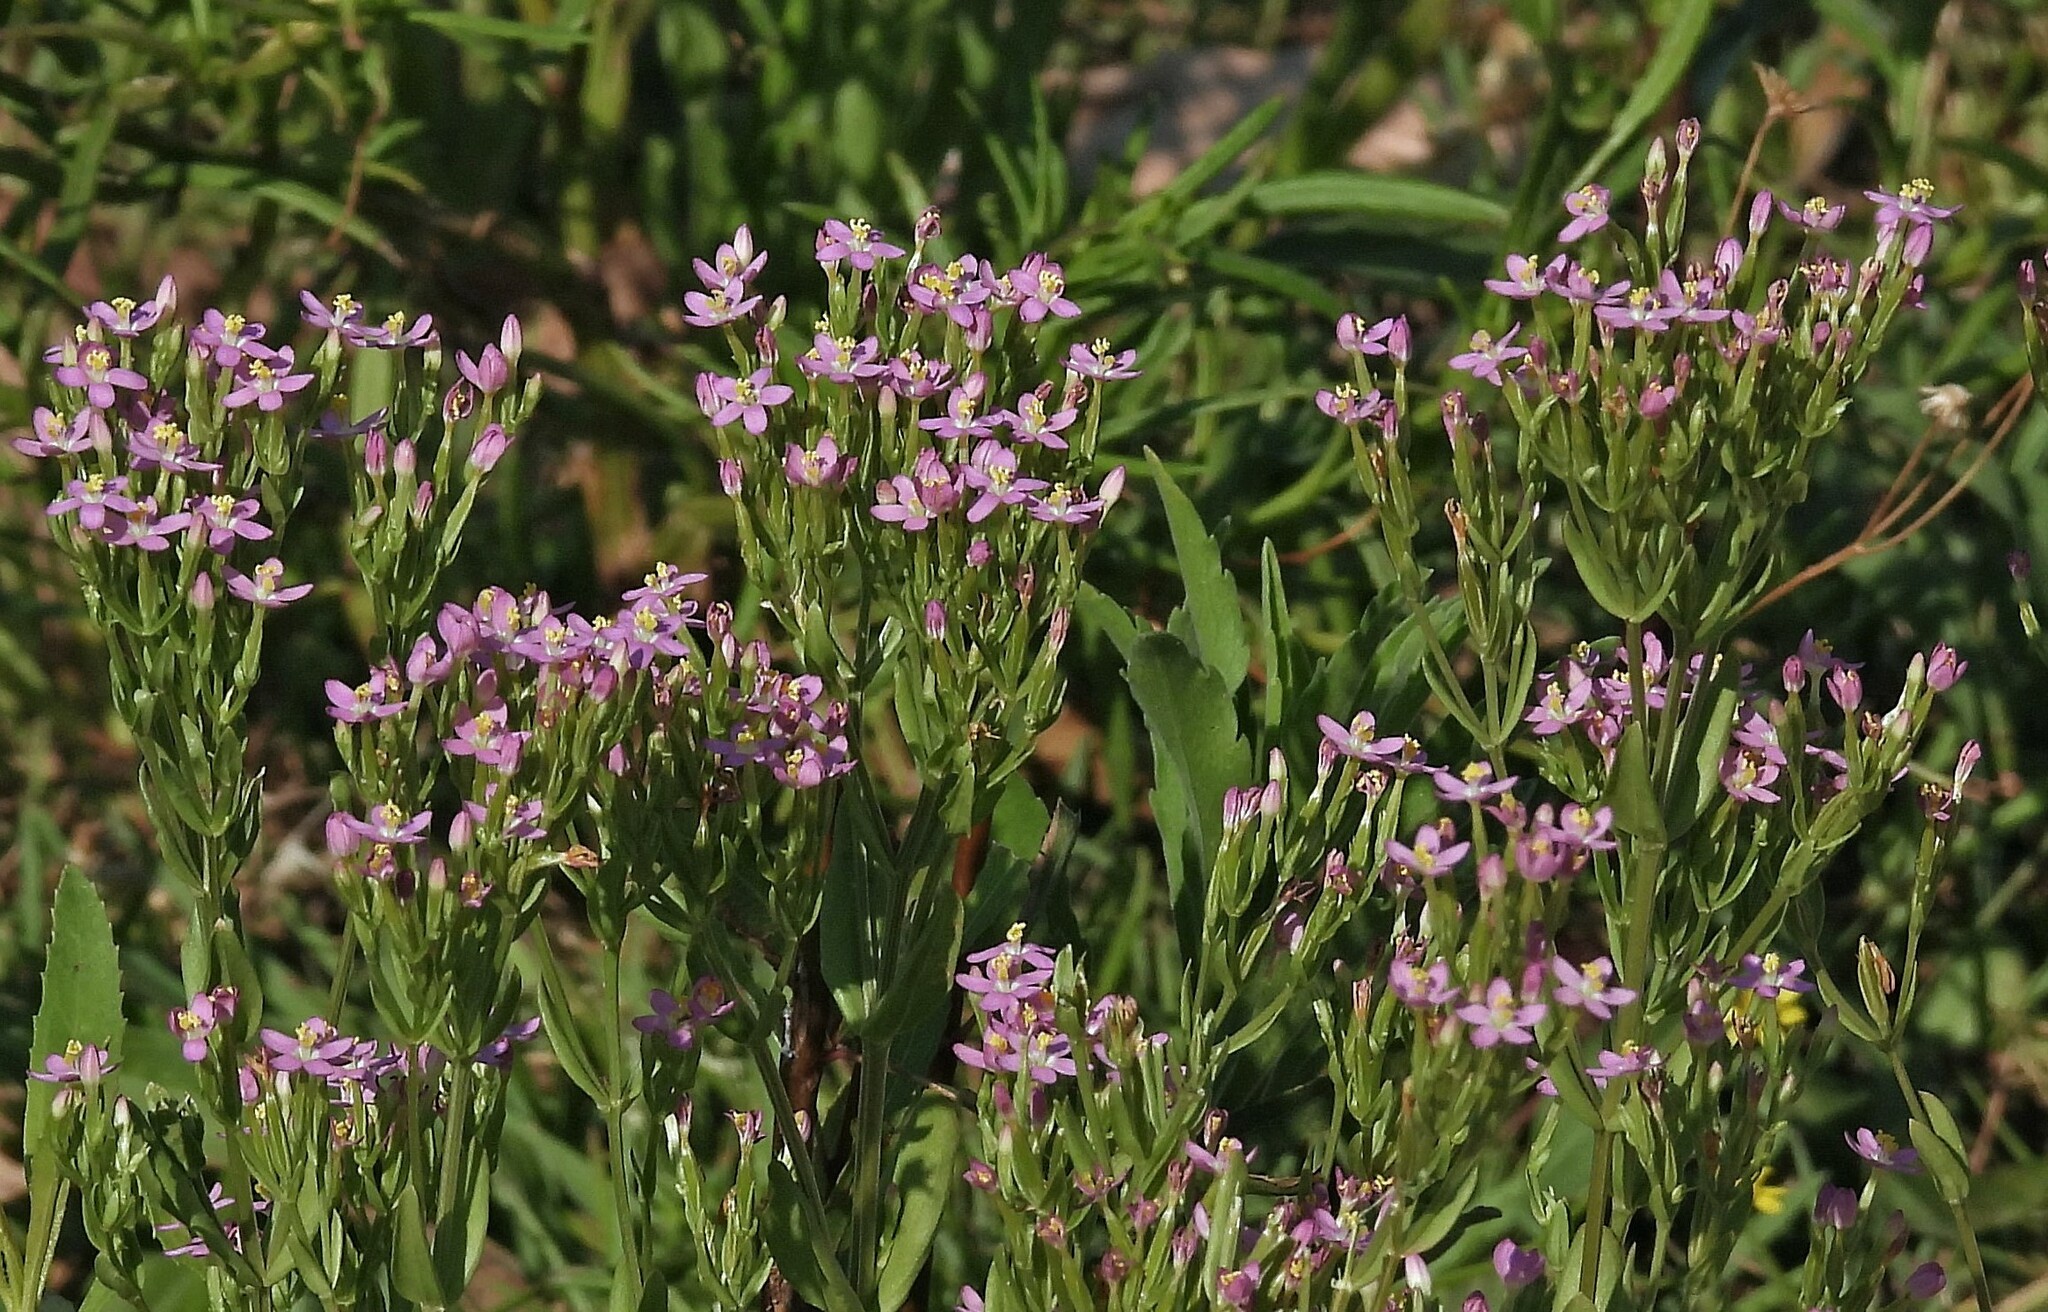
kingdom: Plantae
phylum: Tracheophyta
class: Magnoliopsida
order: Gentianales
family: Gentianaceae
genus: Centaurium
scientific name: Centaurium pulchellum
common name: Lesser centaury
